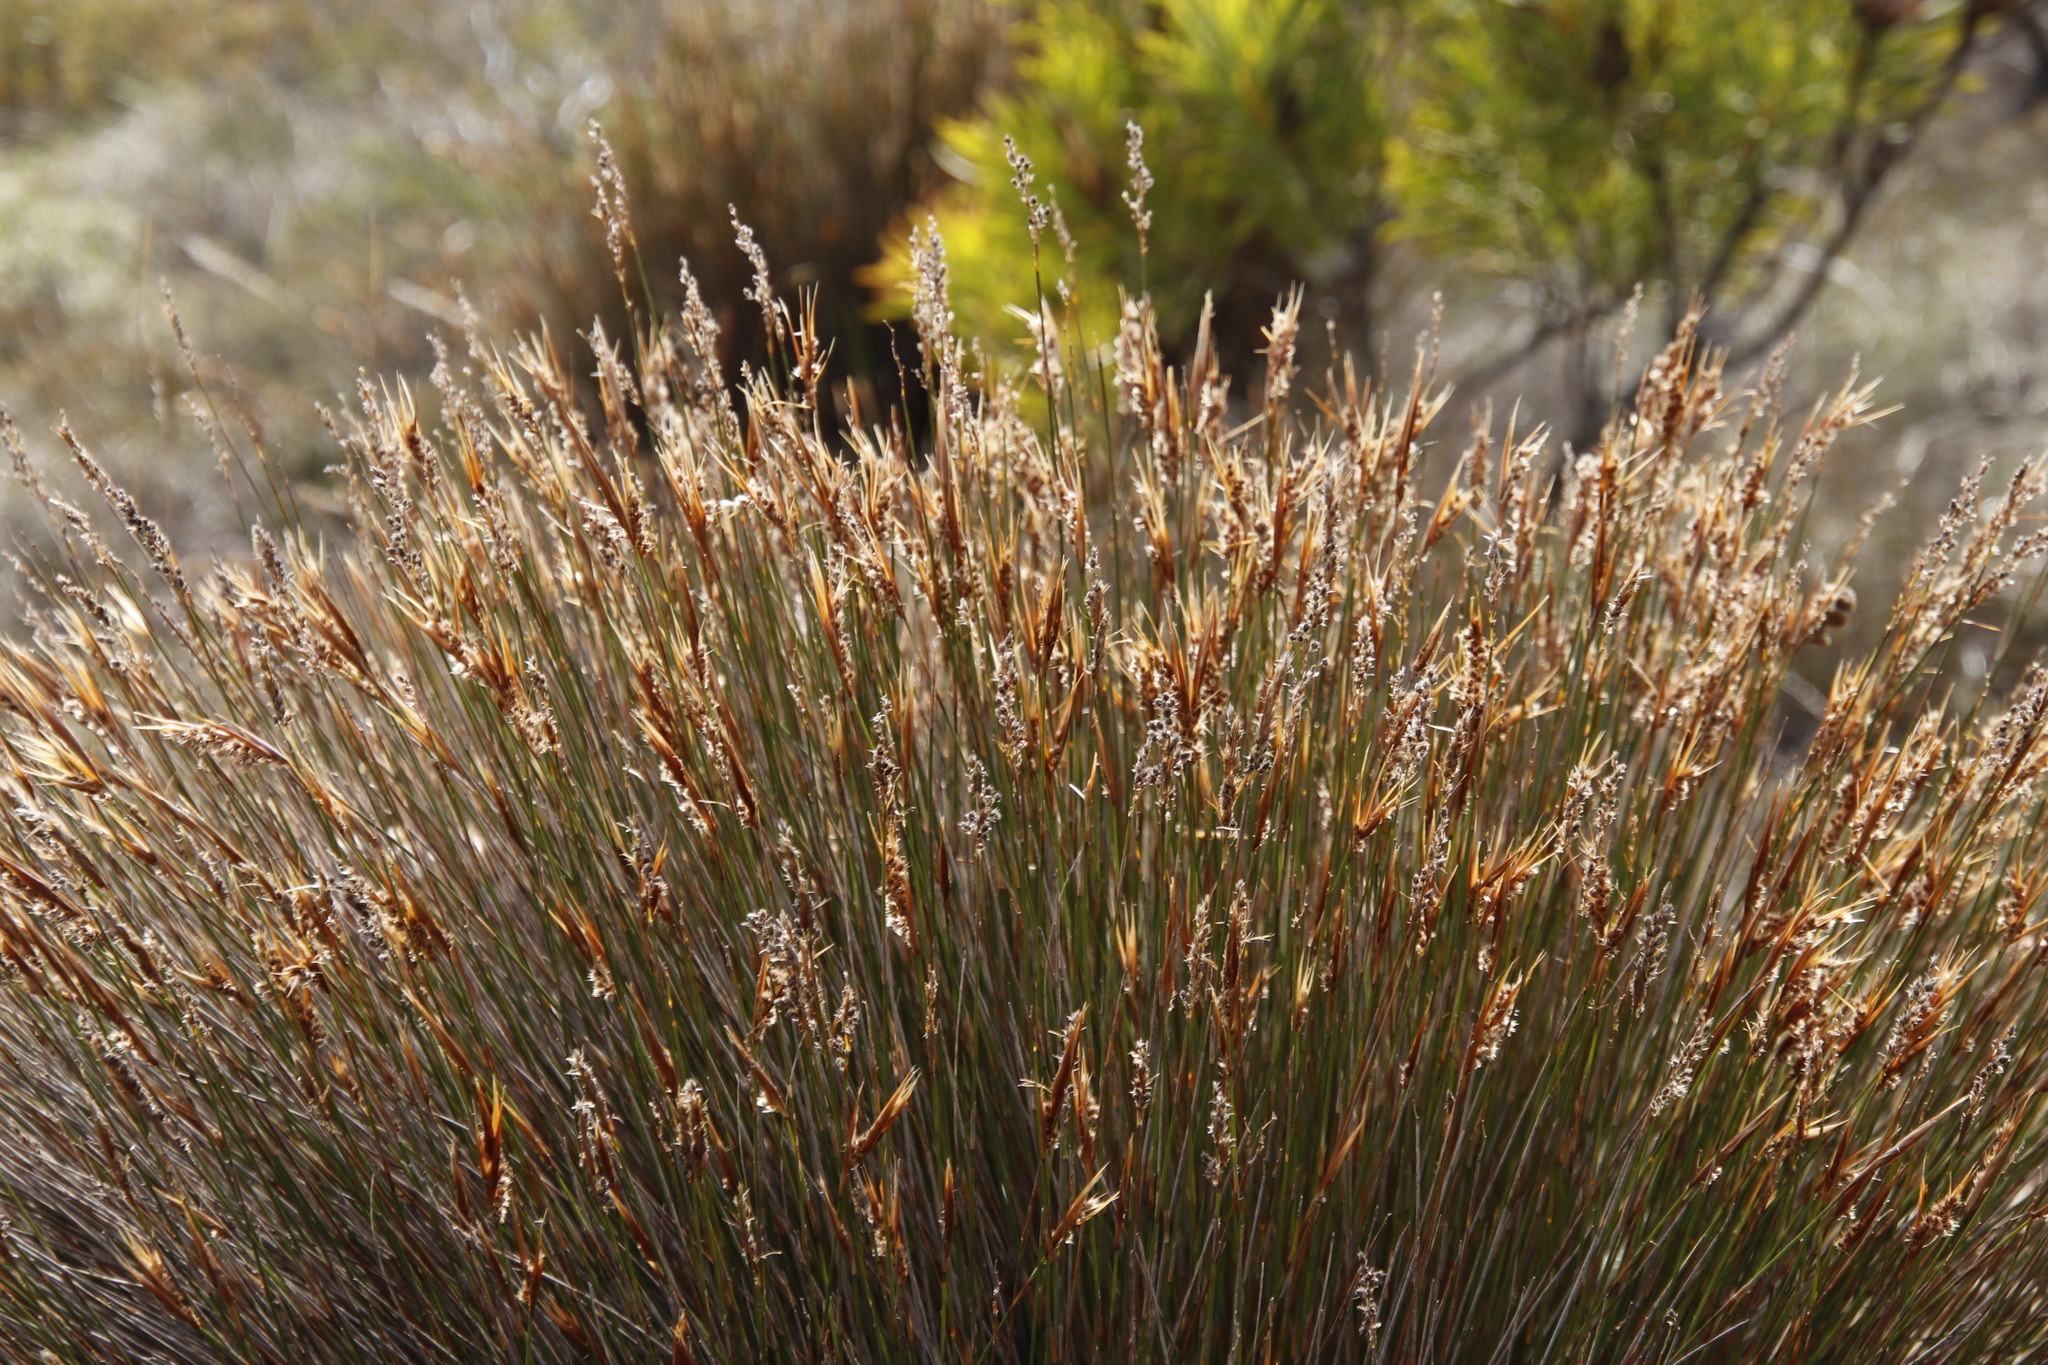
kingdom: Plantae
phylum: Tracheophyta
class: Liliopsida
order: Poales
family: Restionaceae
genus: Hypodiscus
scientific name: Hypodiscus argenteus
